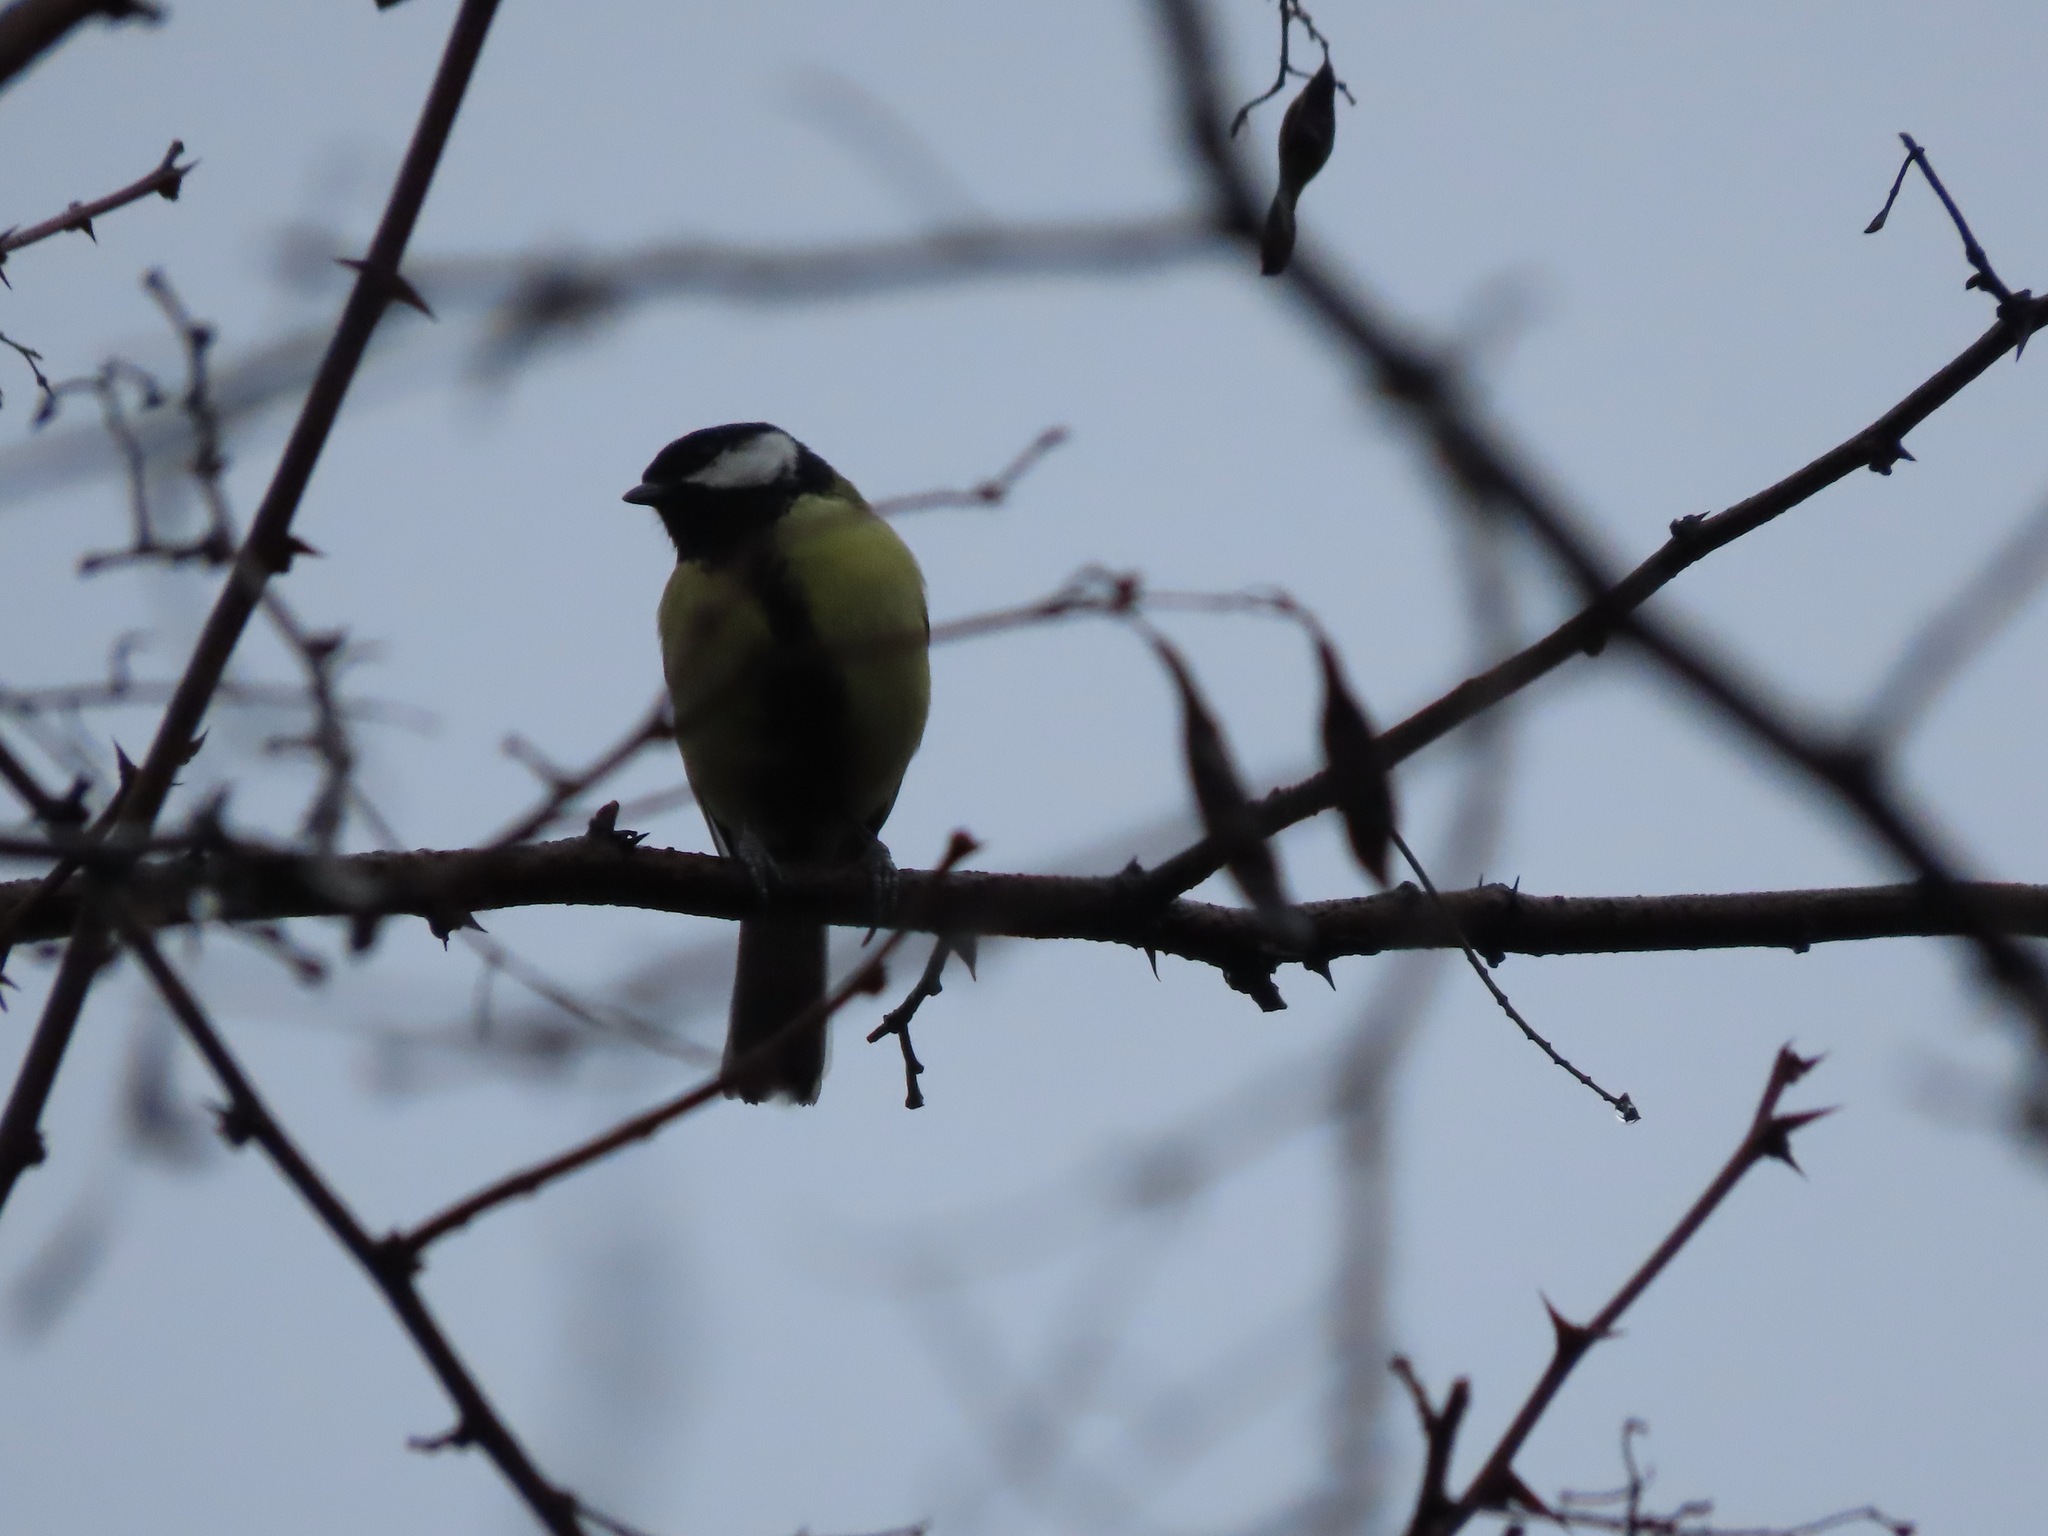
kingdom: Animalia
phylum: Chordata
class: Aves
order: Passeriformes
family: Paridae
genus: Parus
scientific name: Parus major
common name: Great tit
